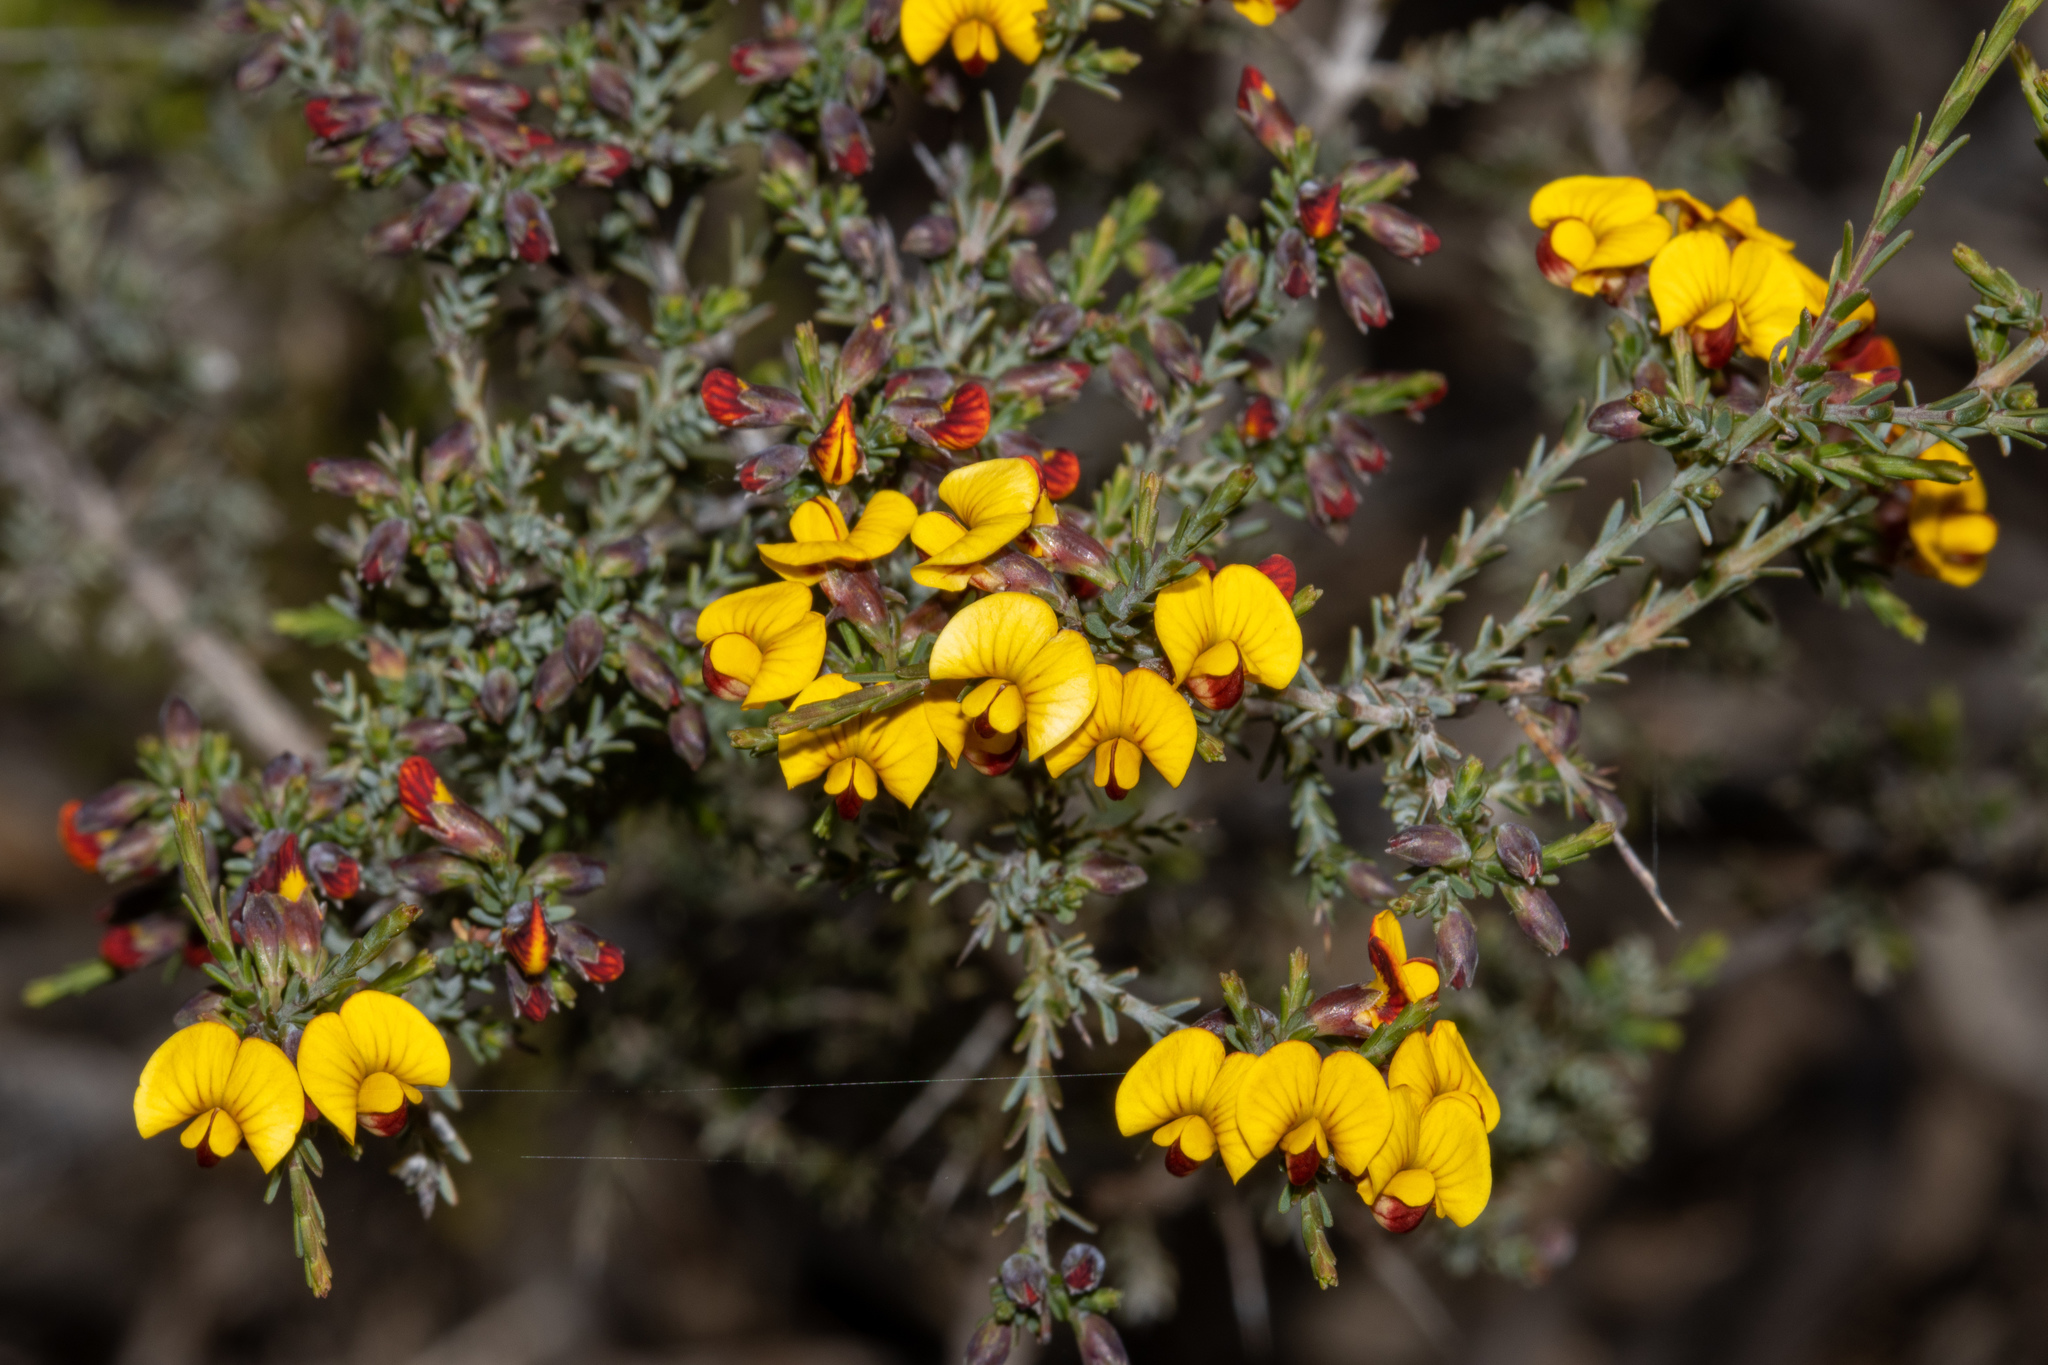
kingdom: Plantae
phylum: Tracheophyta
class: Magnoliopsida
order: Fabales
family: Fabaceae
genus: Eutaxia
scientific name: Eutaxia microphylla
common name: Mallee bush-pea
